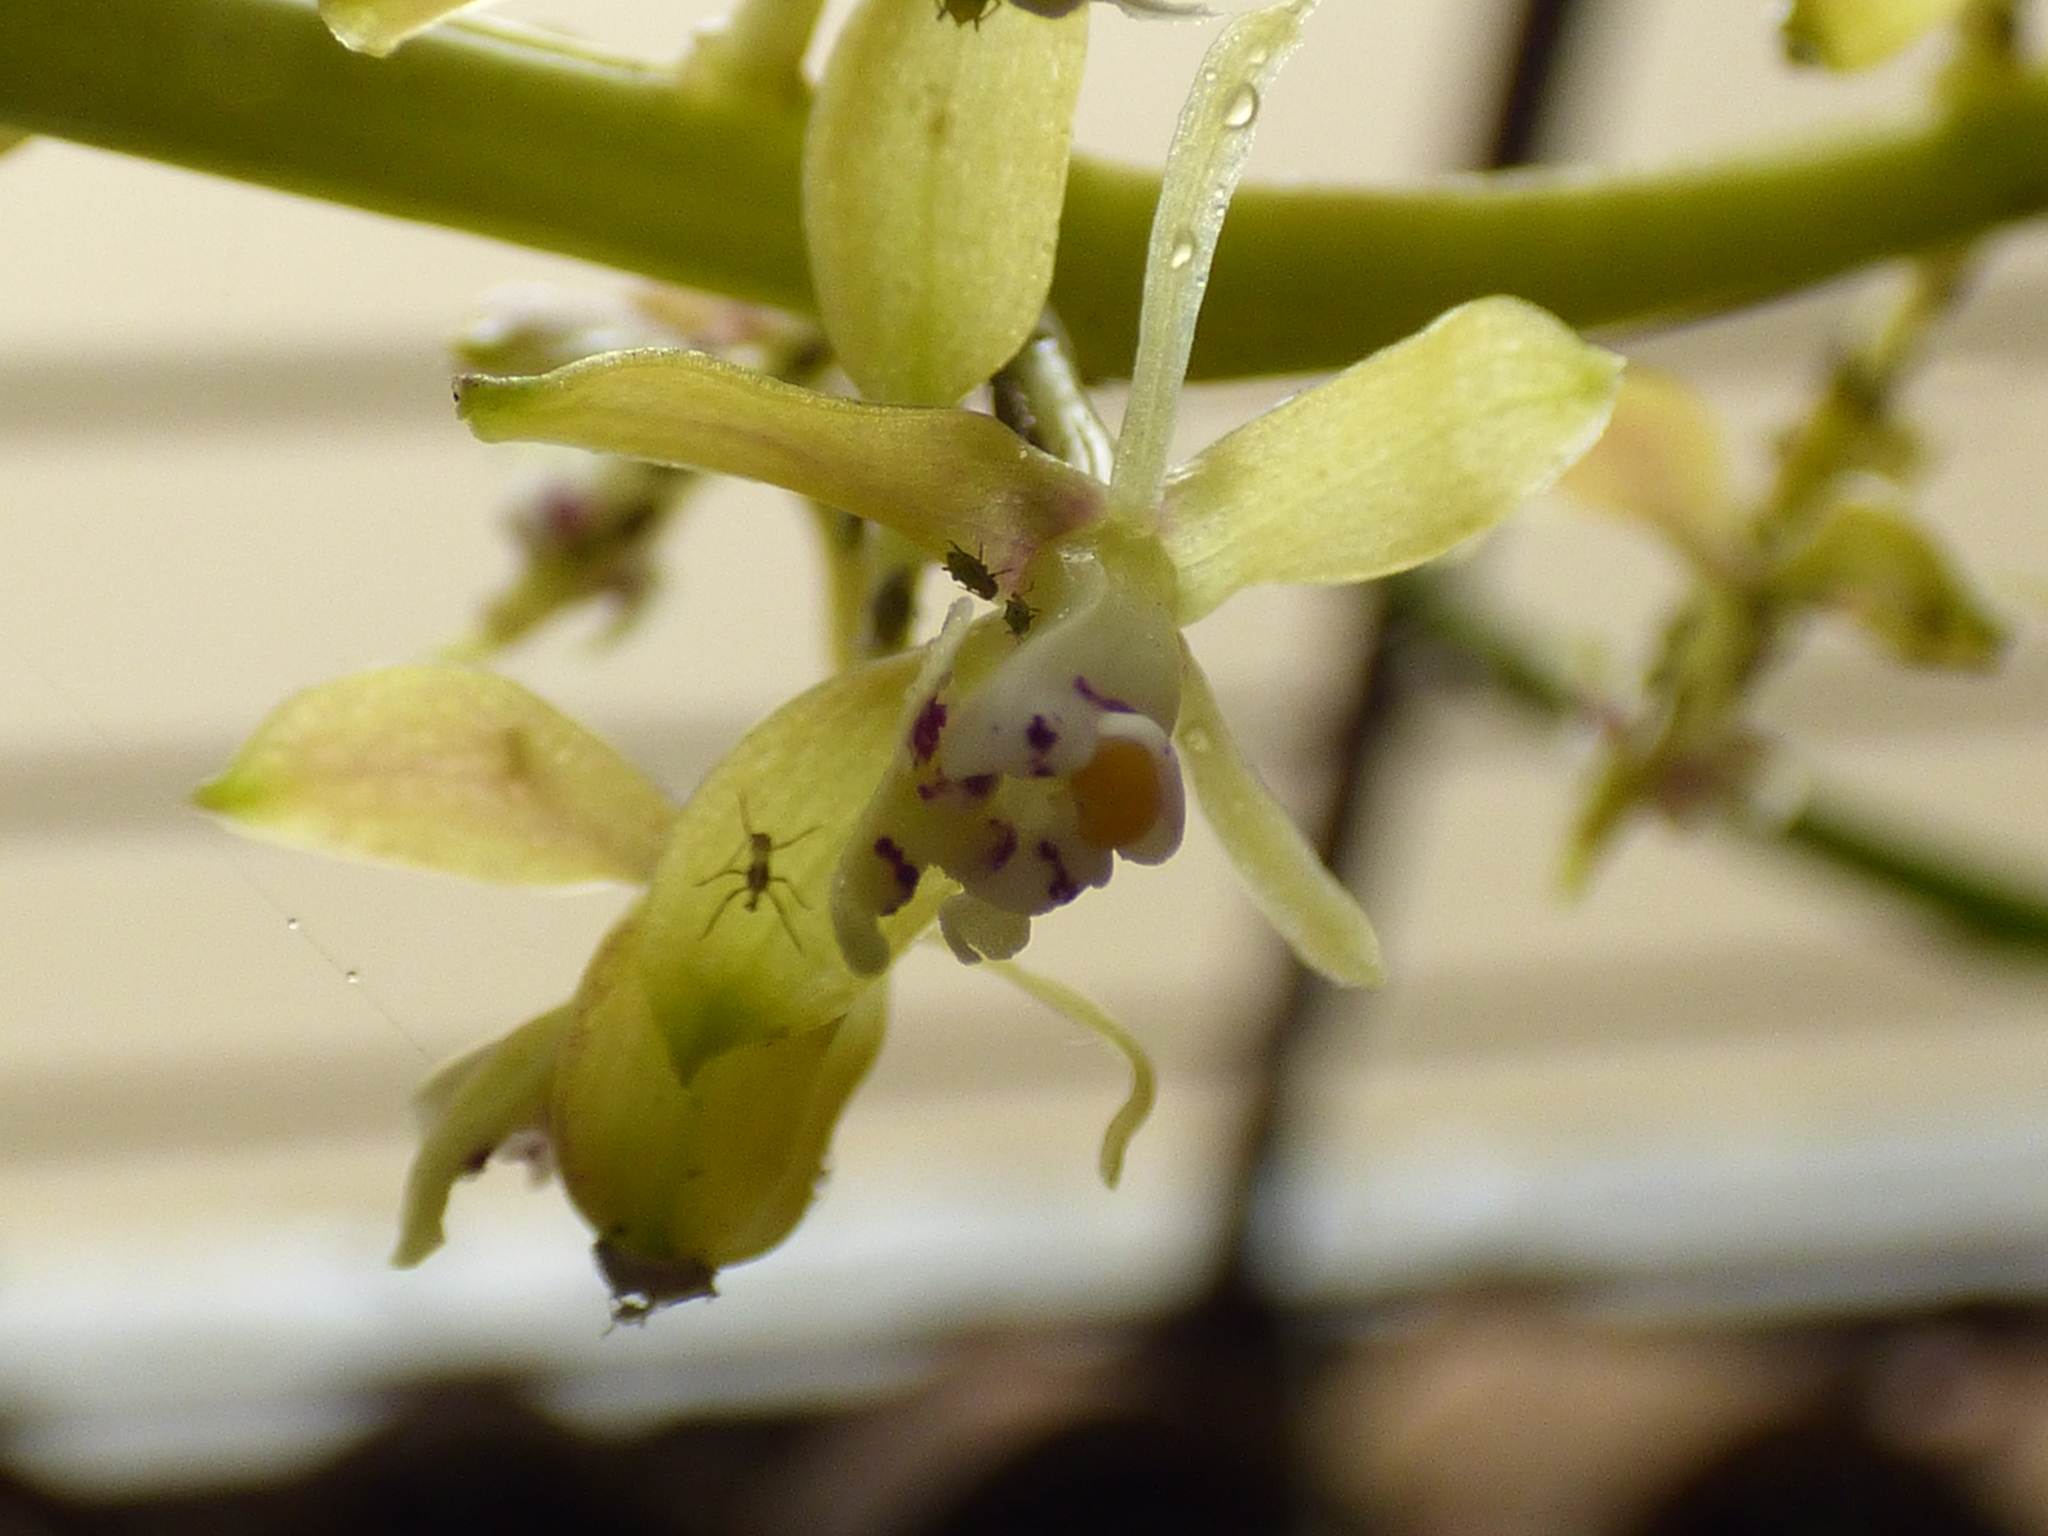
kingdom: Plantae
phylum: Tracheophyta
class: Liliopsida
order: Asparagales
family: Orchidaceae
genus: Epidendrum
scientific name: Epidendrum cylindrostachys
